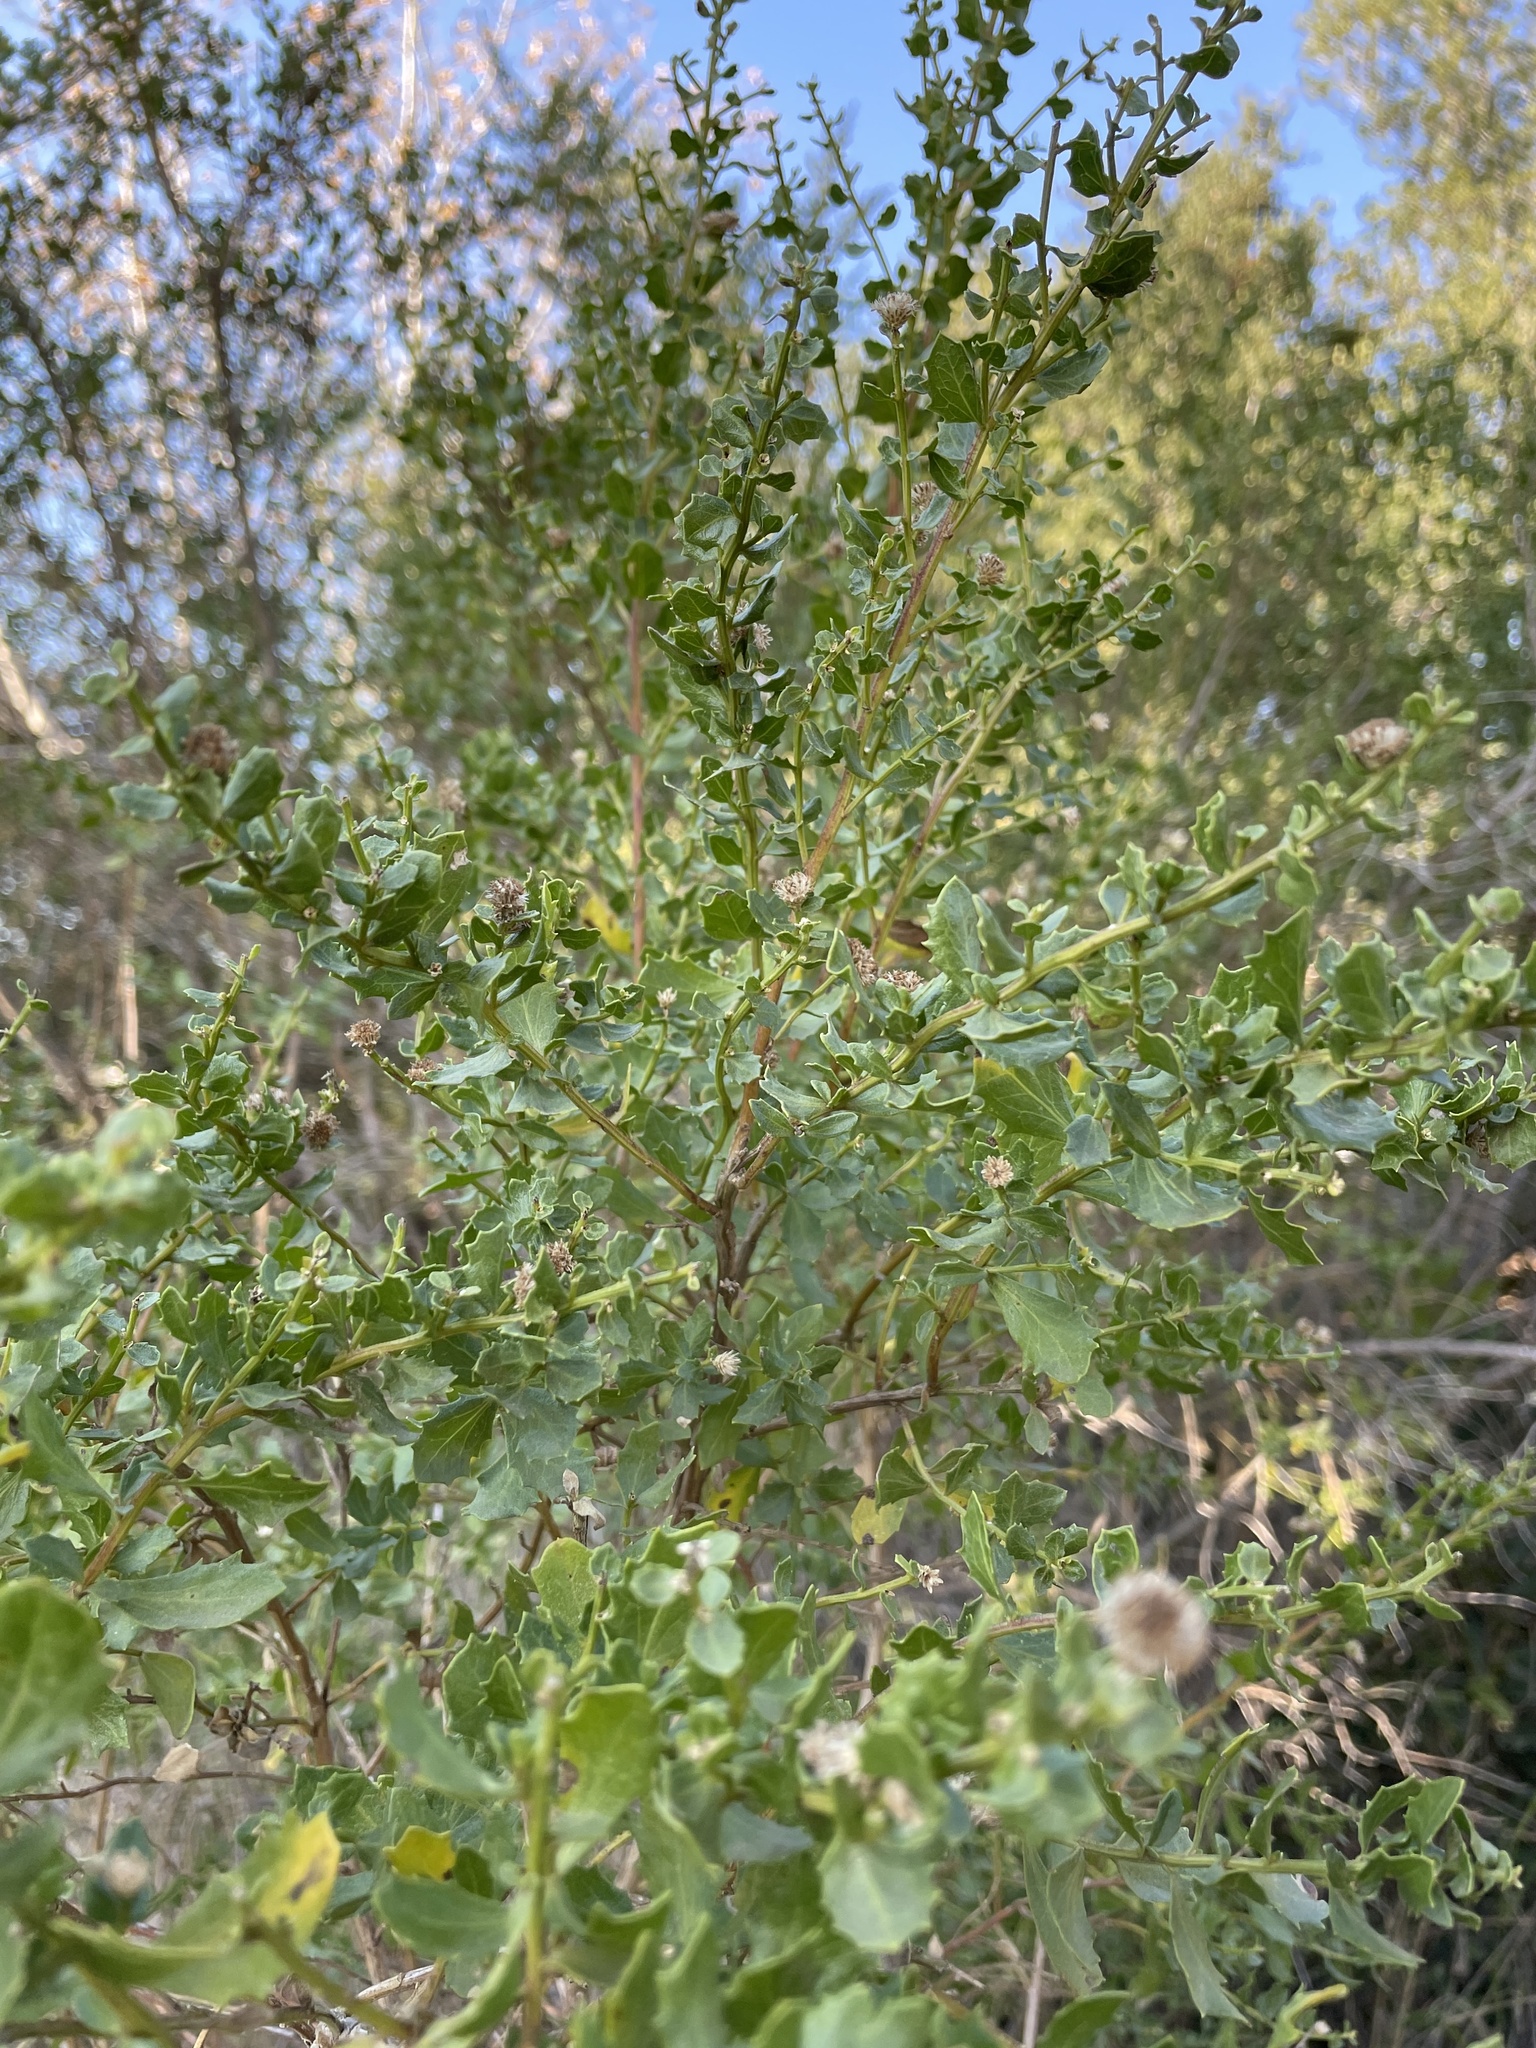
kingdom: Plantae
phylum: Tracheophyta
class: Magnoliopsida
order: Asterales
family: Asteraceae
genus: Baccharis
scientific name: Baccharis pilularis
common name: Coyotebrush
